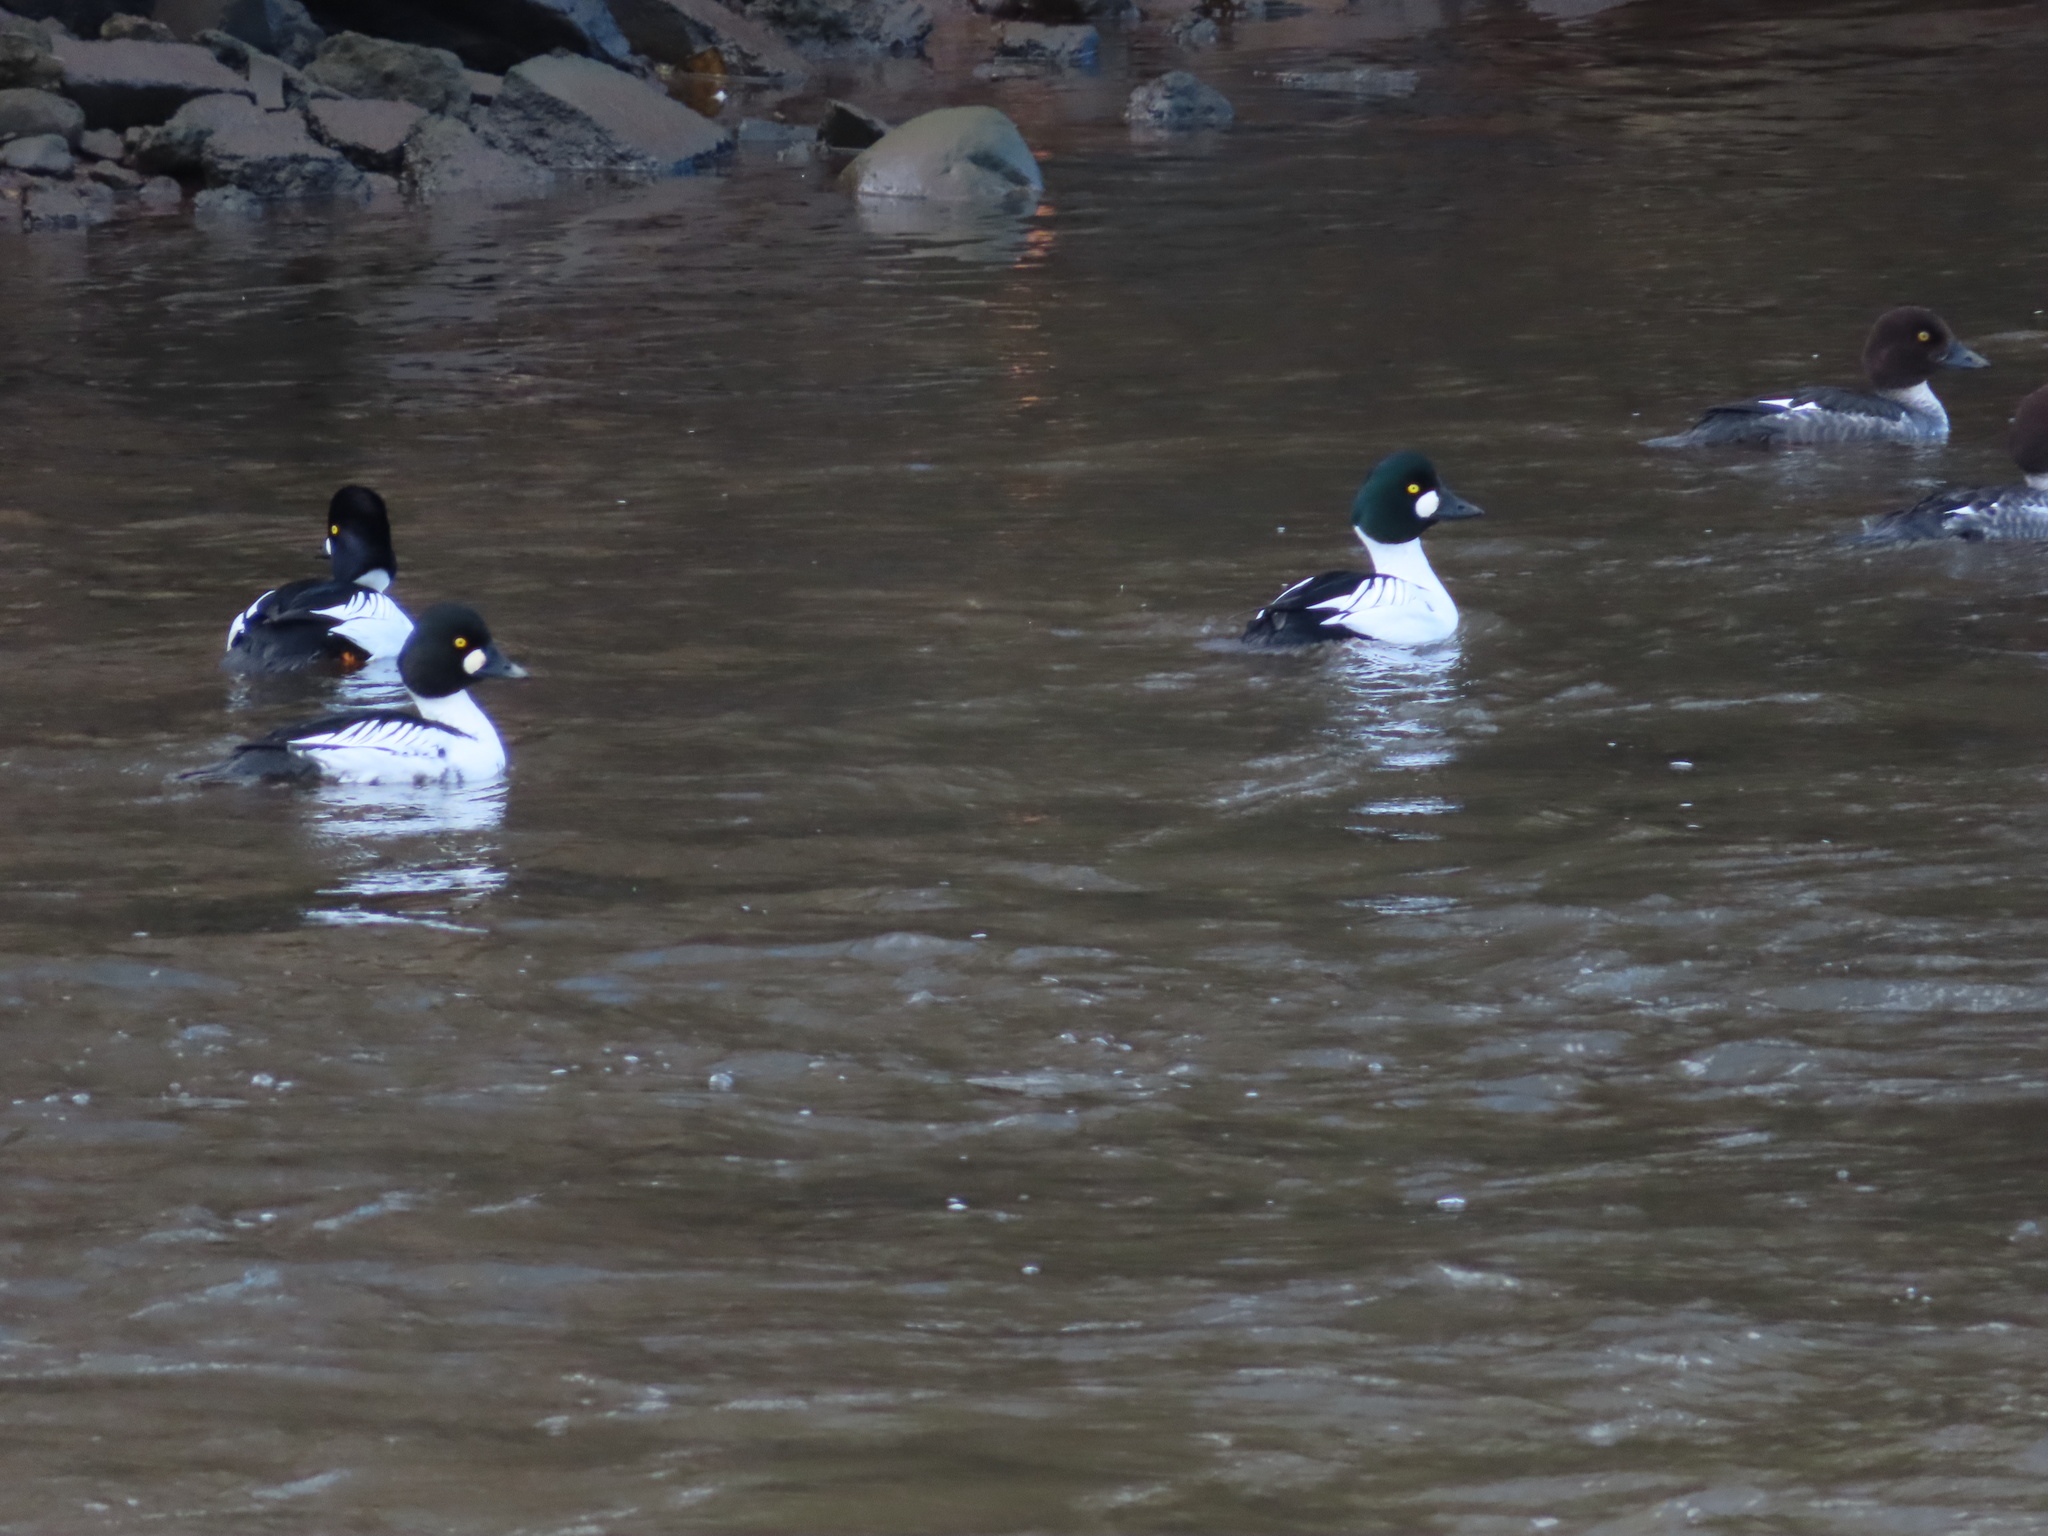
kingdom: Animalia
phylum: Chordata
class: Aves
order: Anseriformes
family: Anatidae
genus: Bucephala
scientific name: Bucephala clangula
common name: Common goldeneye
